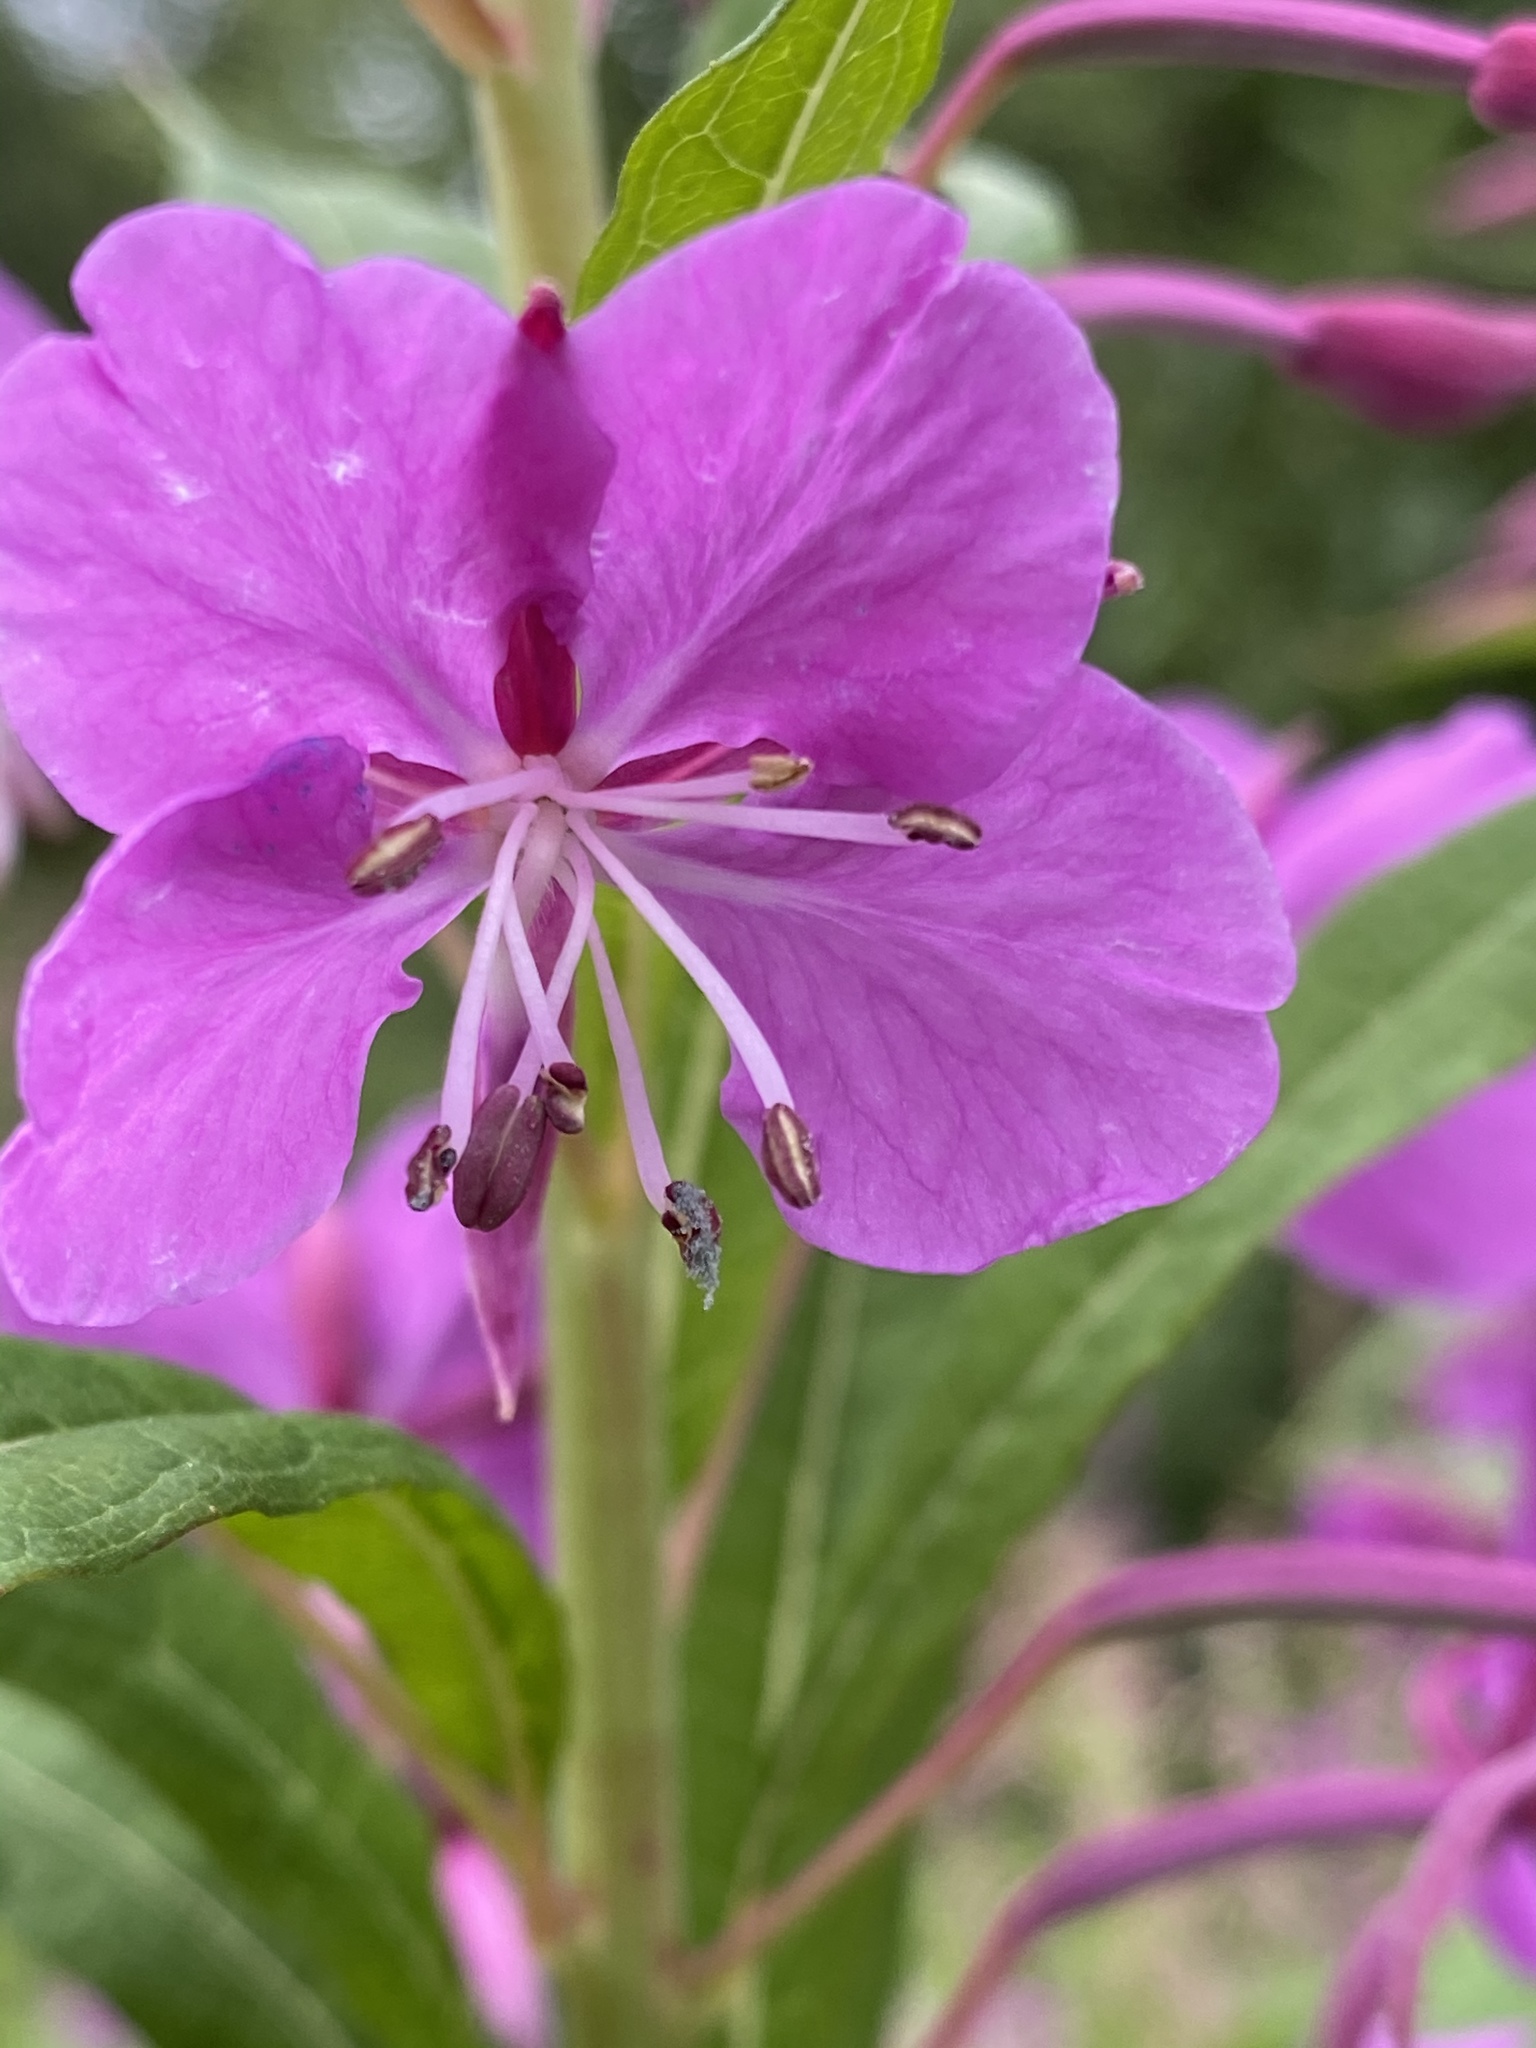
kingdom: Plantae
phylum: Tracheophyta
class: Magnoliopsida
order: Myrtales
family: Onagraceae
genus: Chamaenerion
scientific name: Chamaenerion angustifolium
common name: Fireweed
